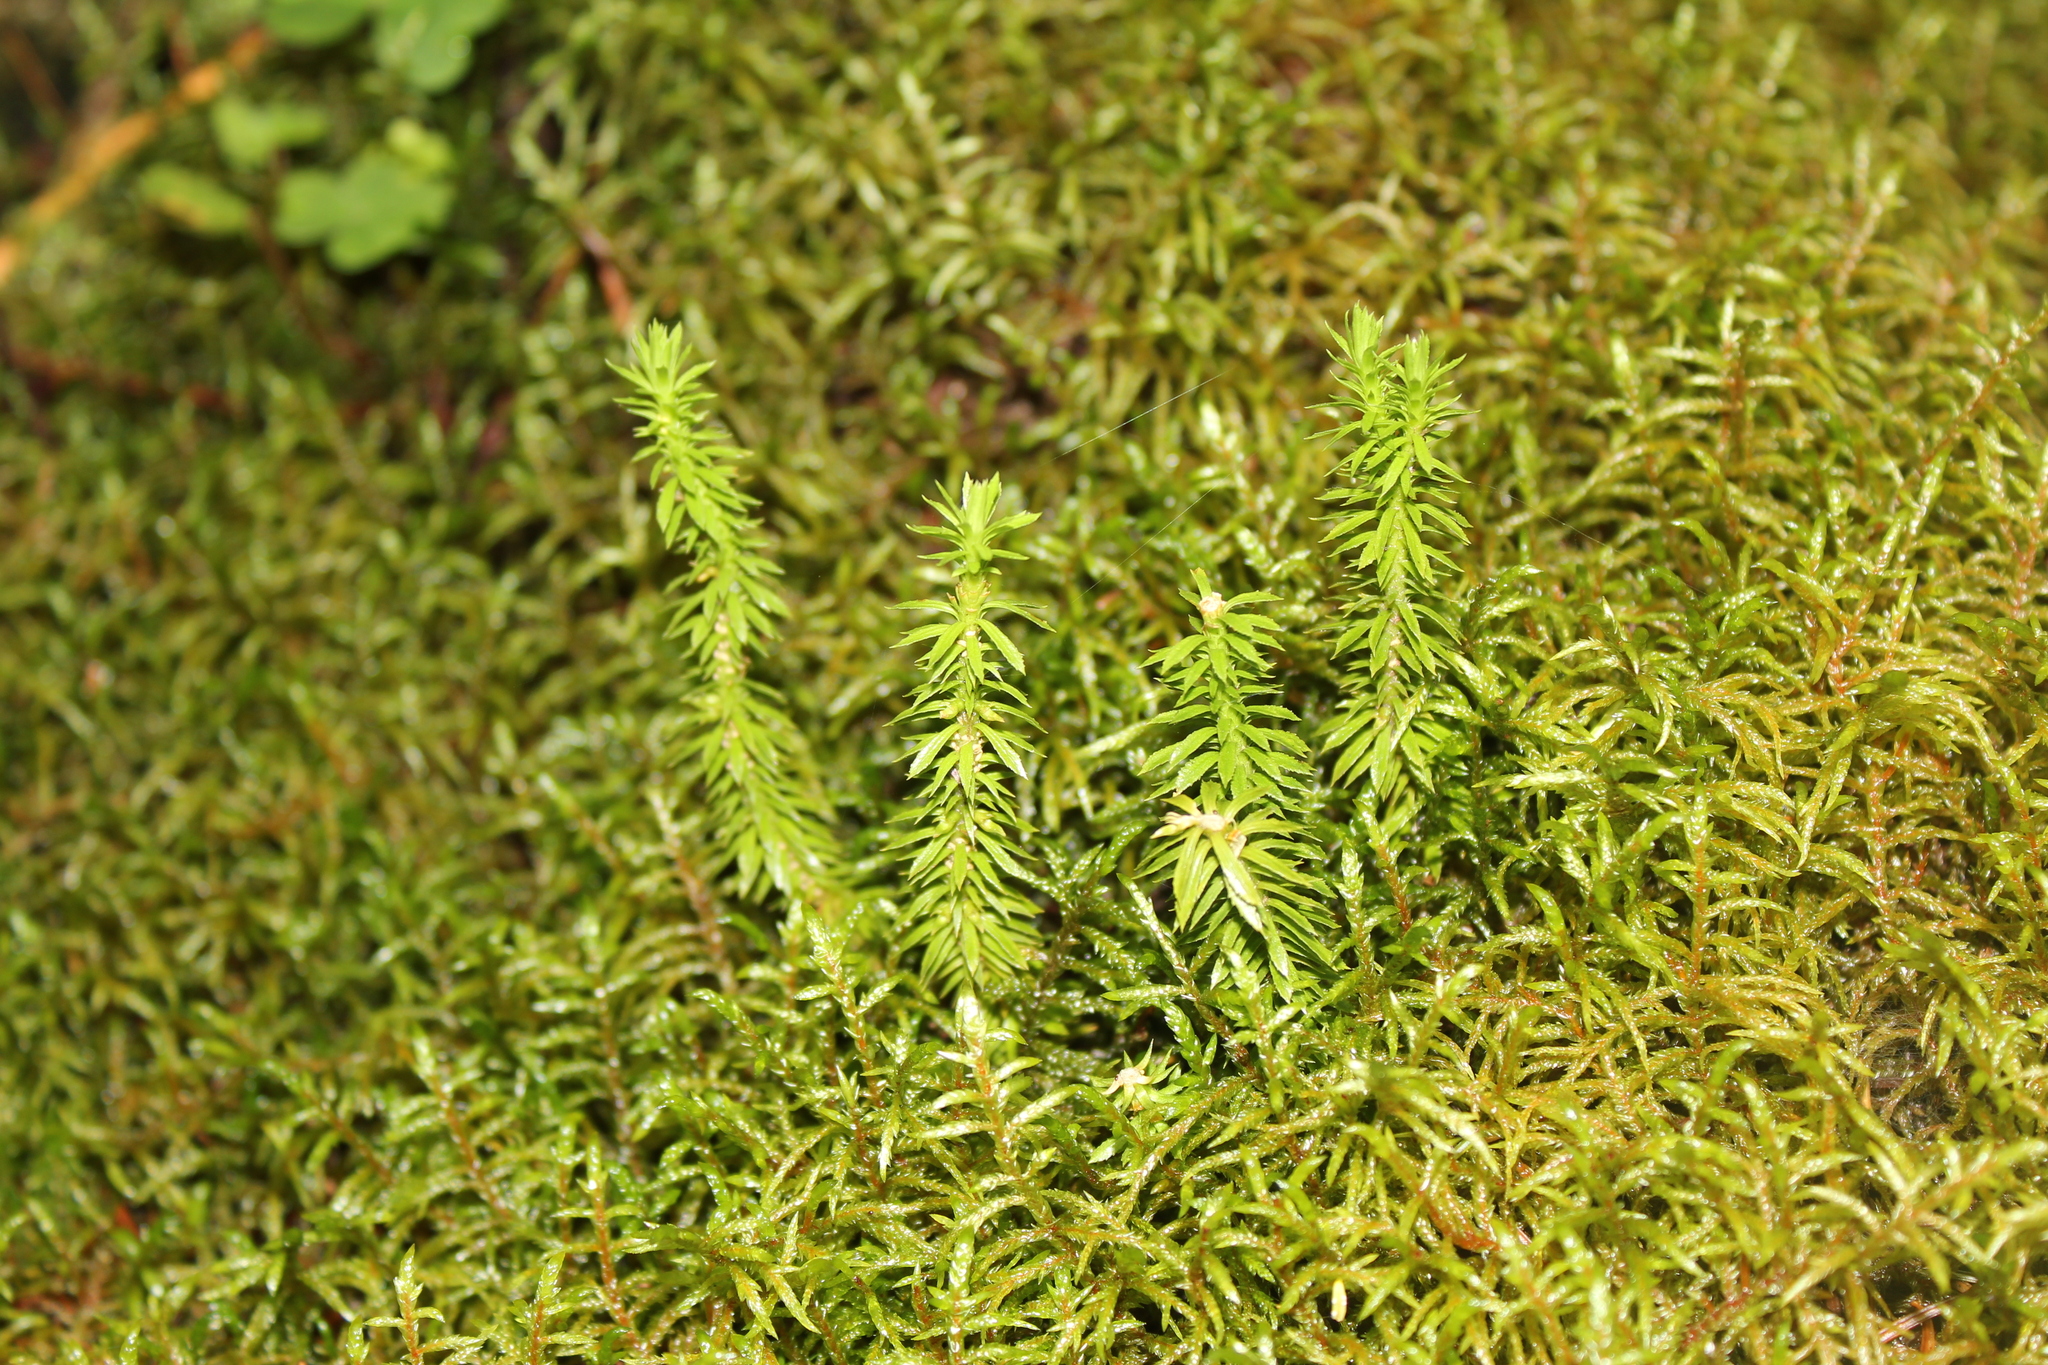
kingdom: Plantae
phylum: Tracheophyta
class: Lycopodiopsida
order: Lycopodiales
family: Lycopodiaceae
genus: Huperzia
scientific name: Huperzia lucidula
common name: Shining clubmoss
